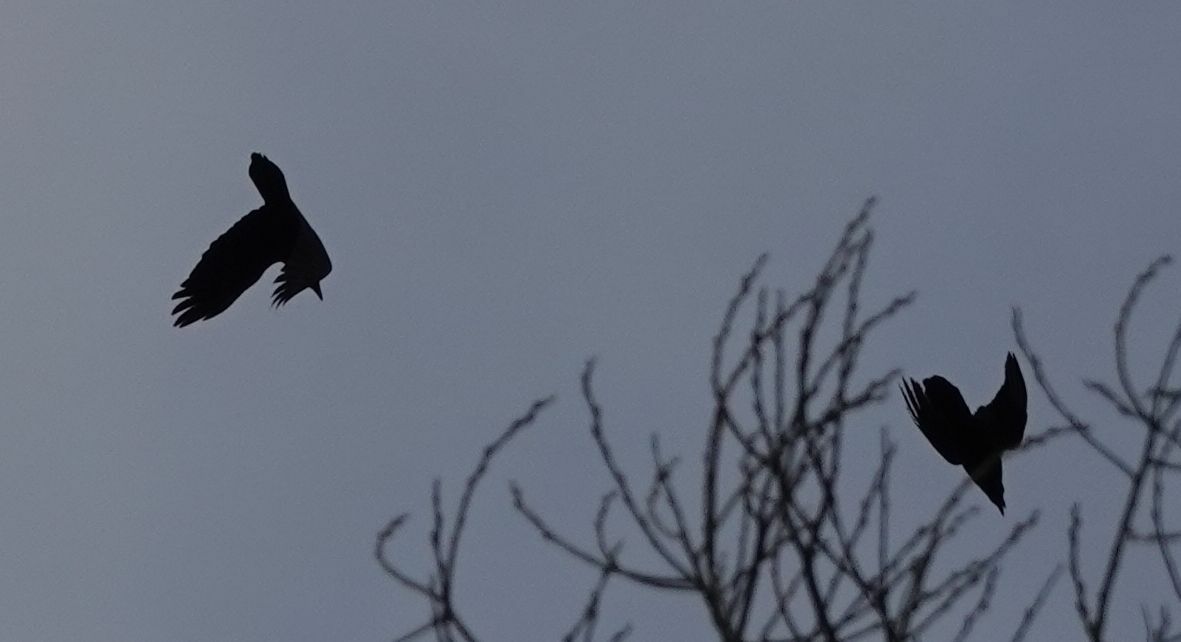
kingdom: Animalia
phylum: Chordata
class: Aves
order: Passeriformes
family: Corvidae
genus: Corvus
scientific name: Corvus corax
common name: Common raven
